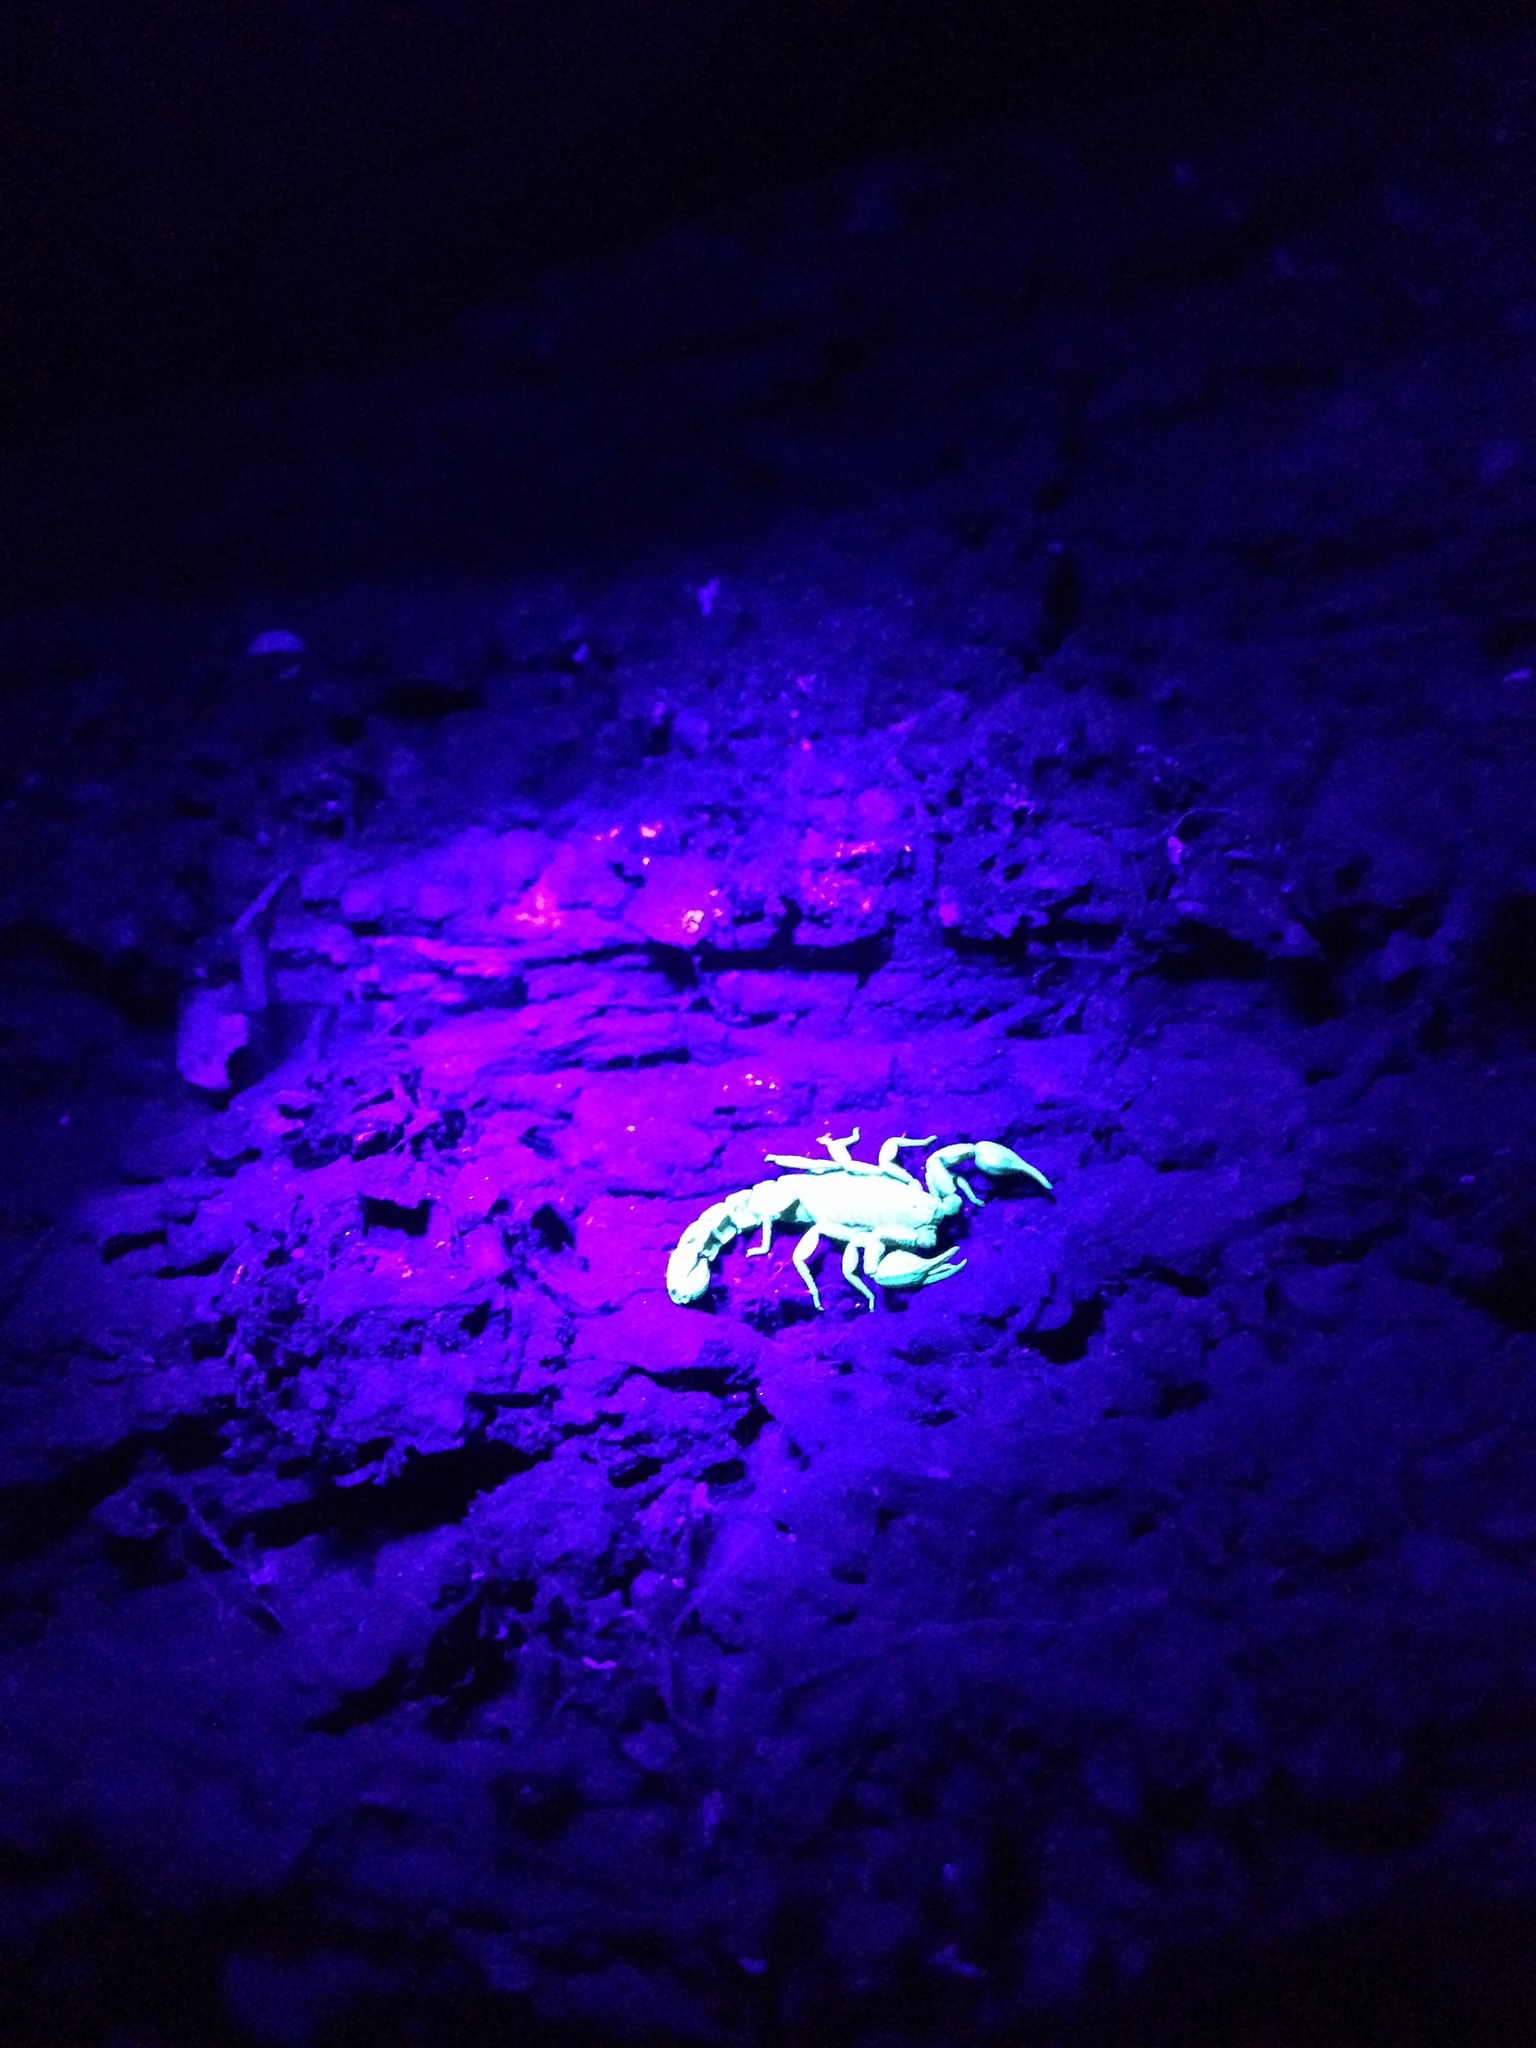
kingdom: Animalia
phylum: Arthropoda
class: Arachnida
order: Scorpiones
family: Vaejovidae
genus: Catalinia
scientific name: Catalinia thompsoni
